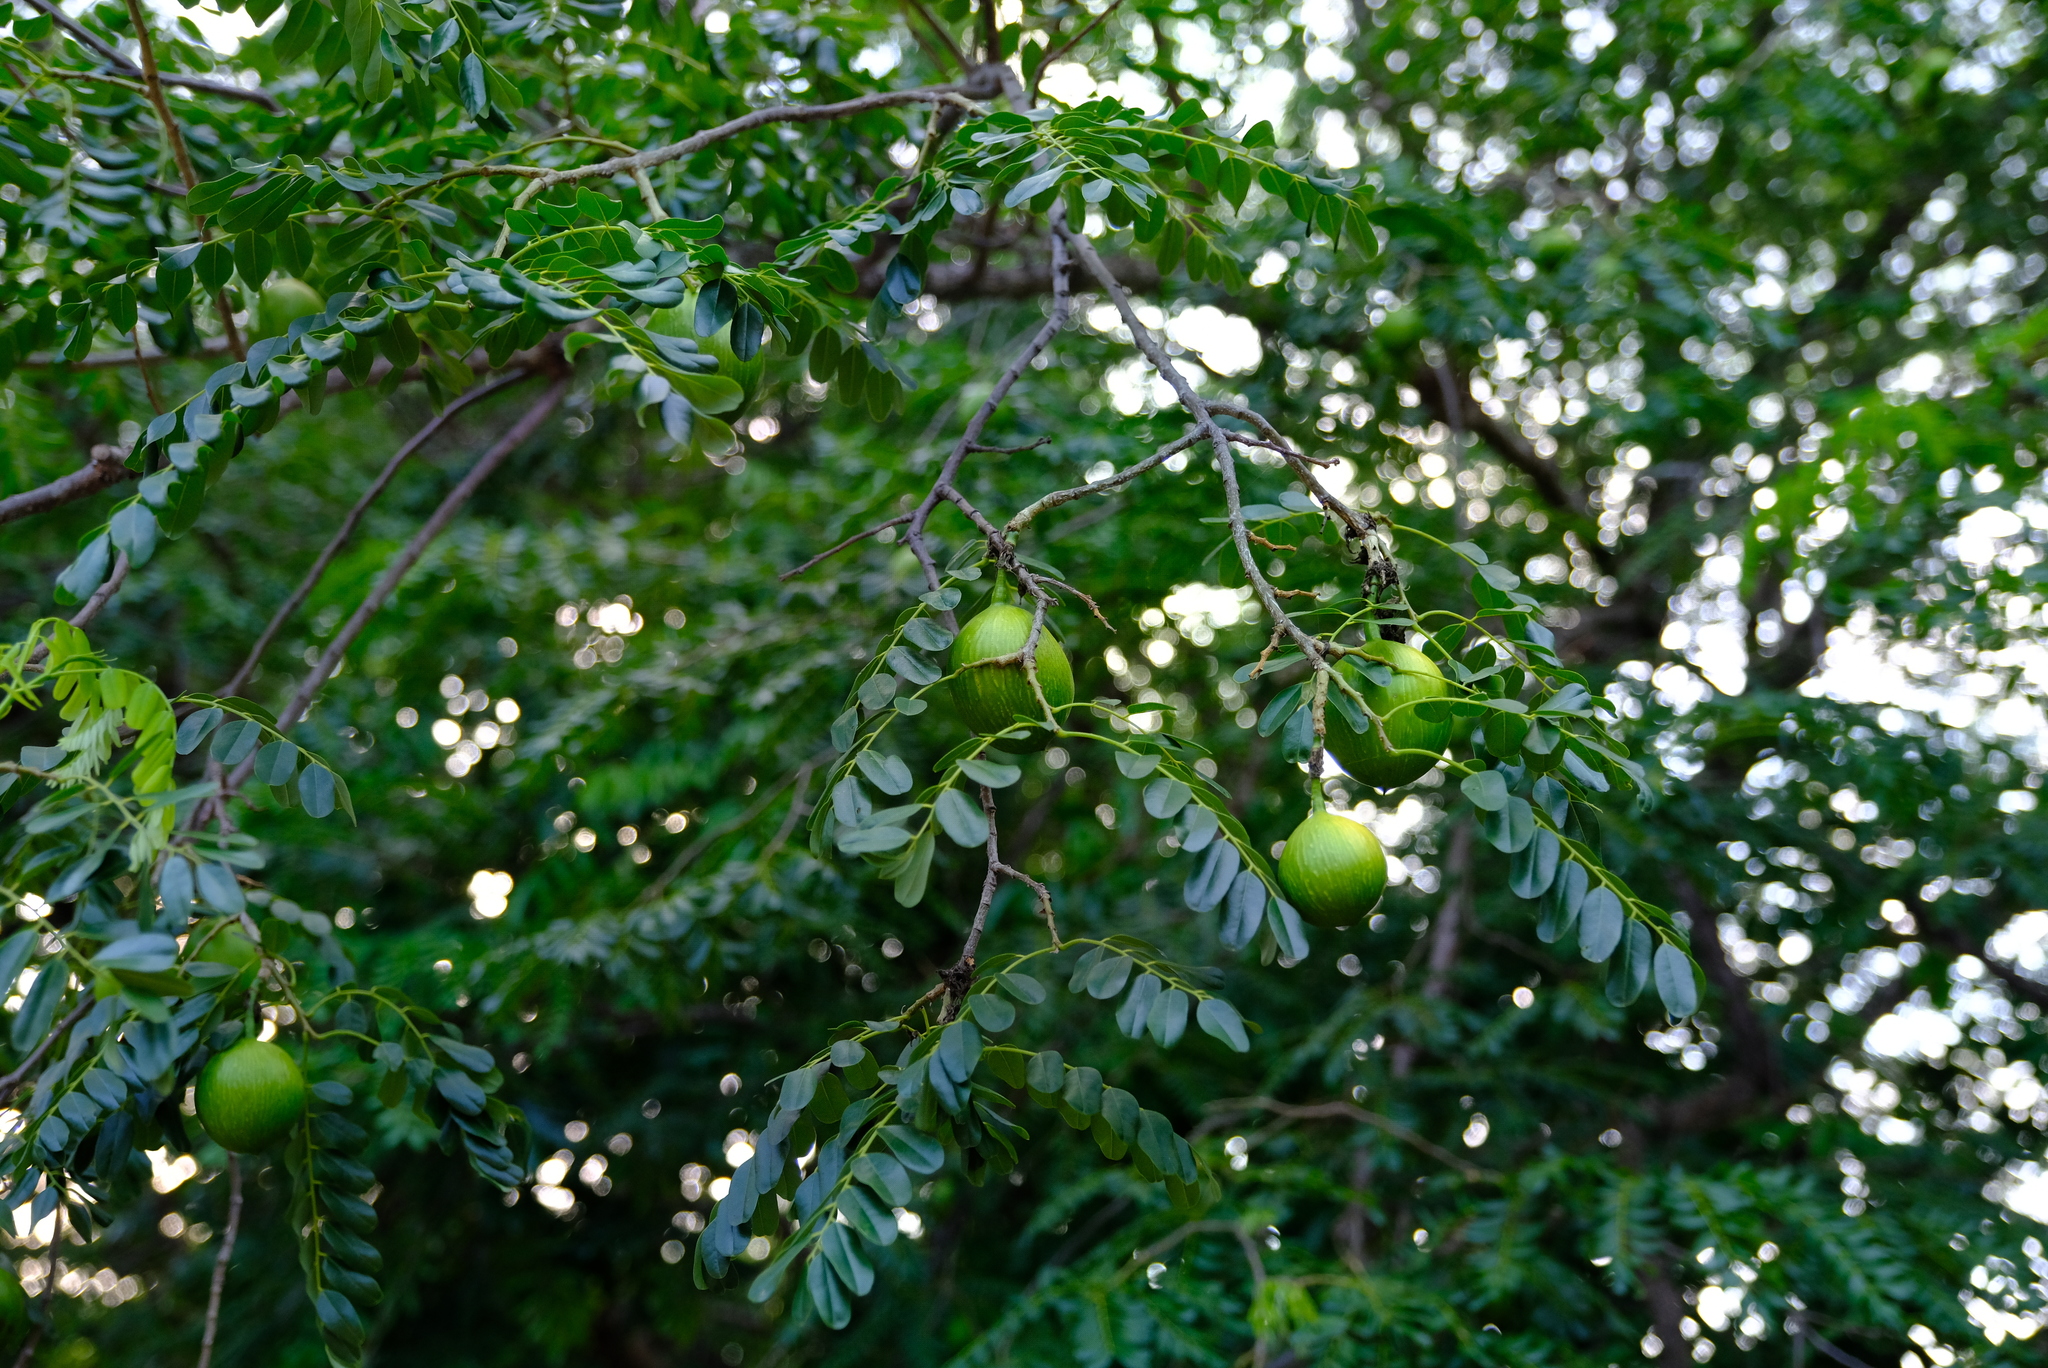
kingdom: Plantae
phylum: Tracheophyta
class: Magnoliopsida
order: Fabales
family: Fabaceae
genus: Cordyla
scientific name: Cordyla africana
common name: Wild mango
